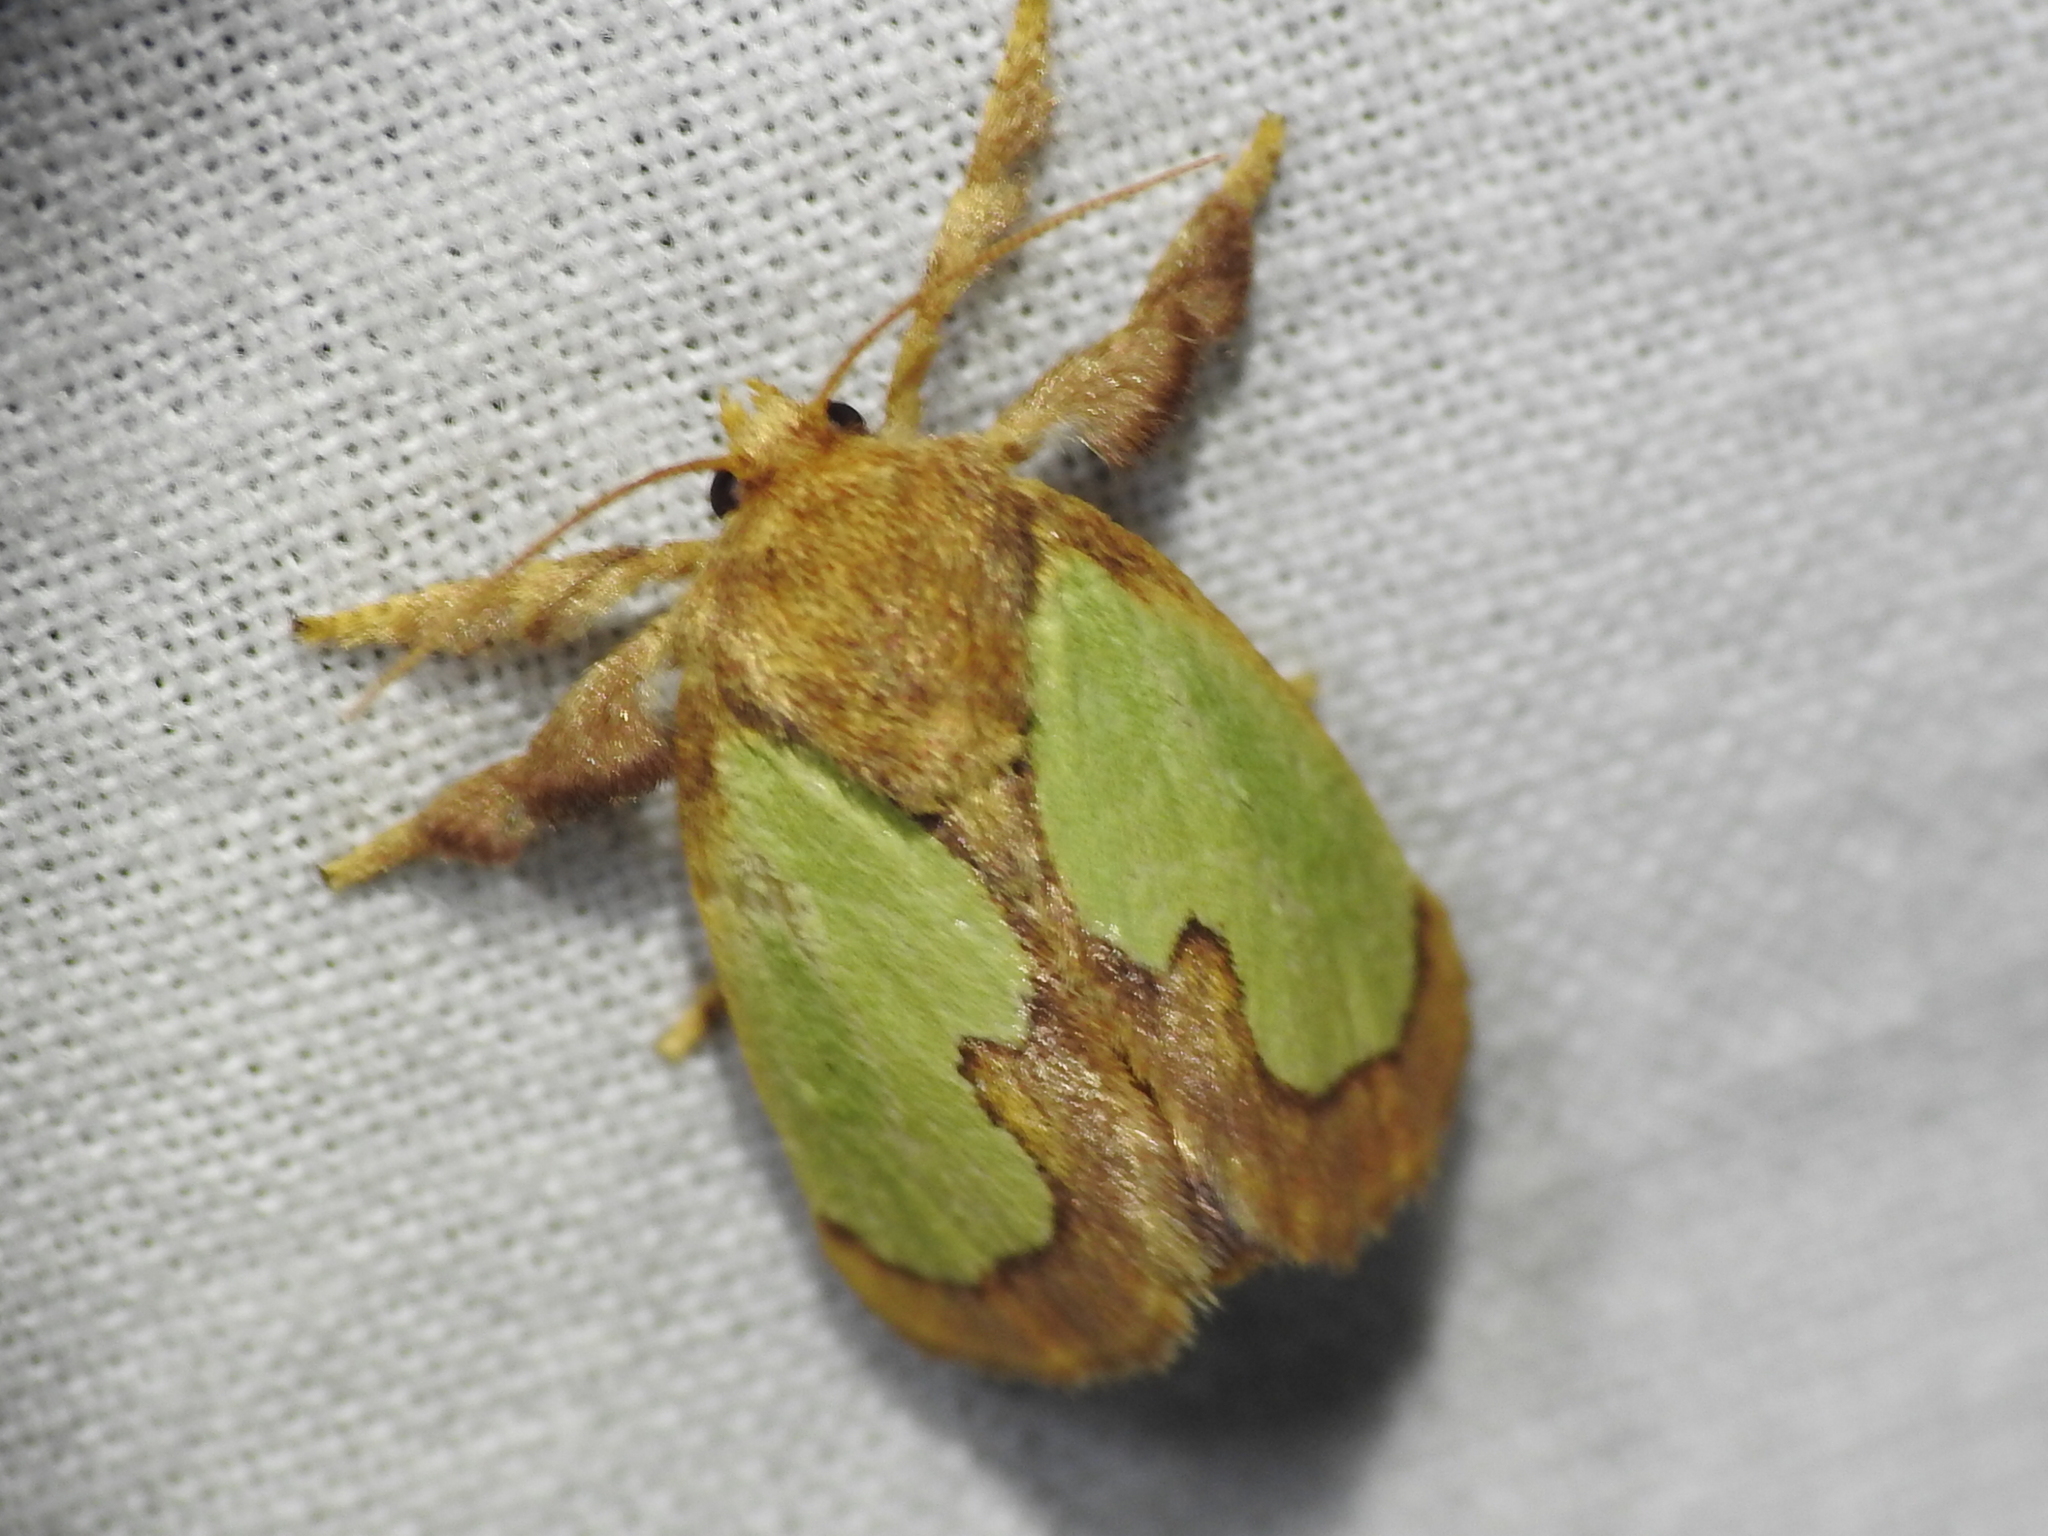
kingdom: Animalia
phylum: Arthropoda
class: Insecta
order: Lepidoptera
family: Limacodidae
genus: Euclea
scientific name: Euclea incisa
